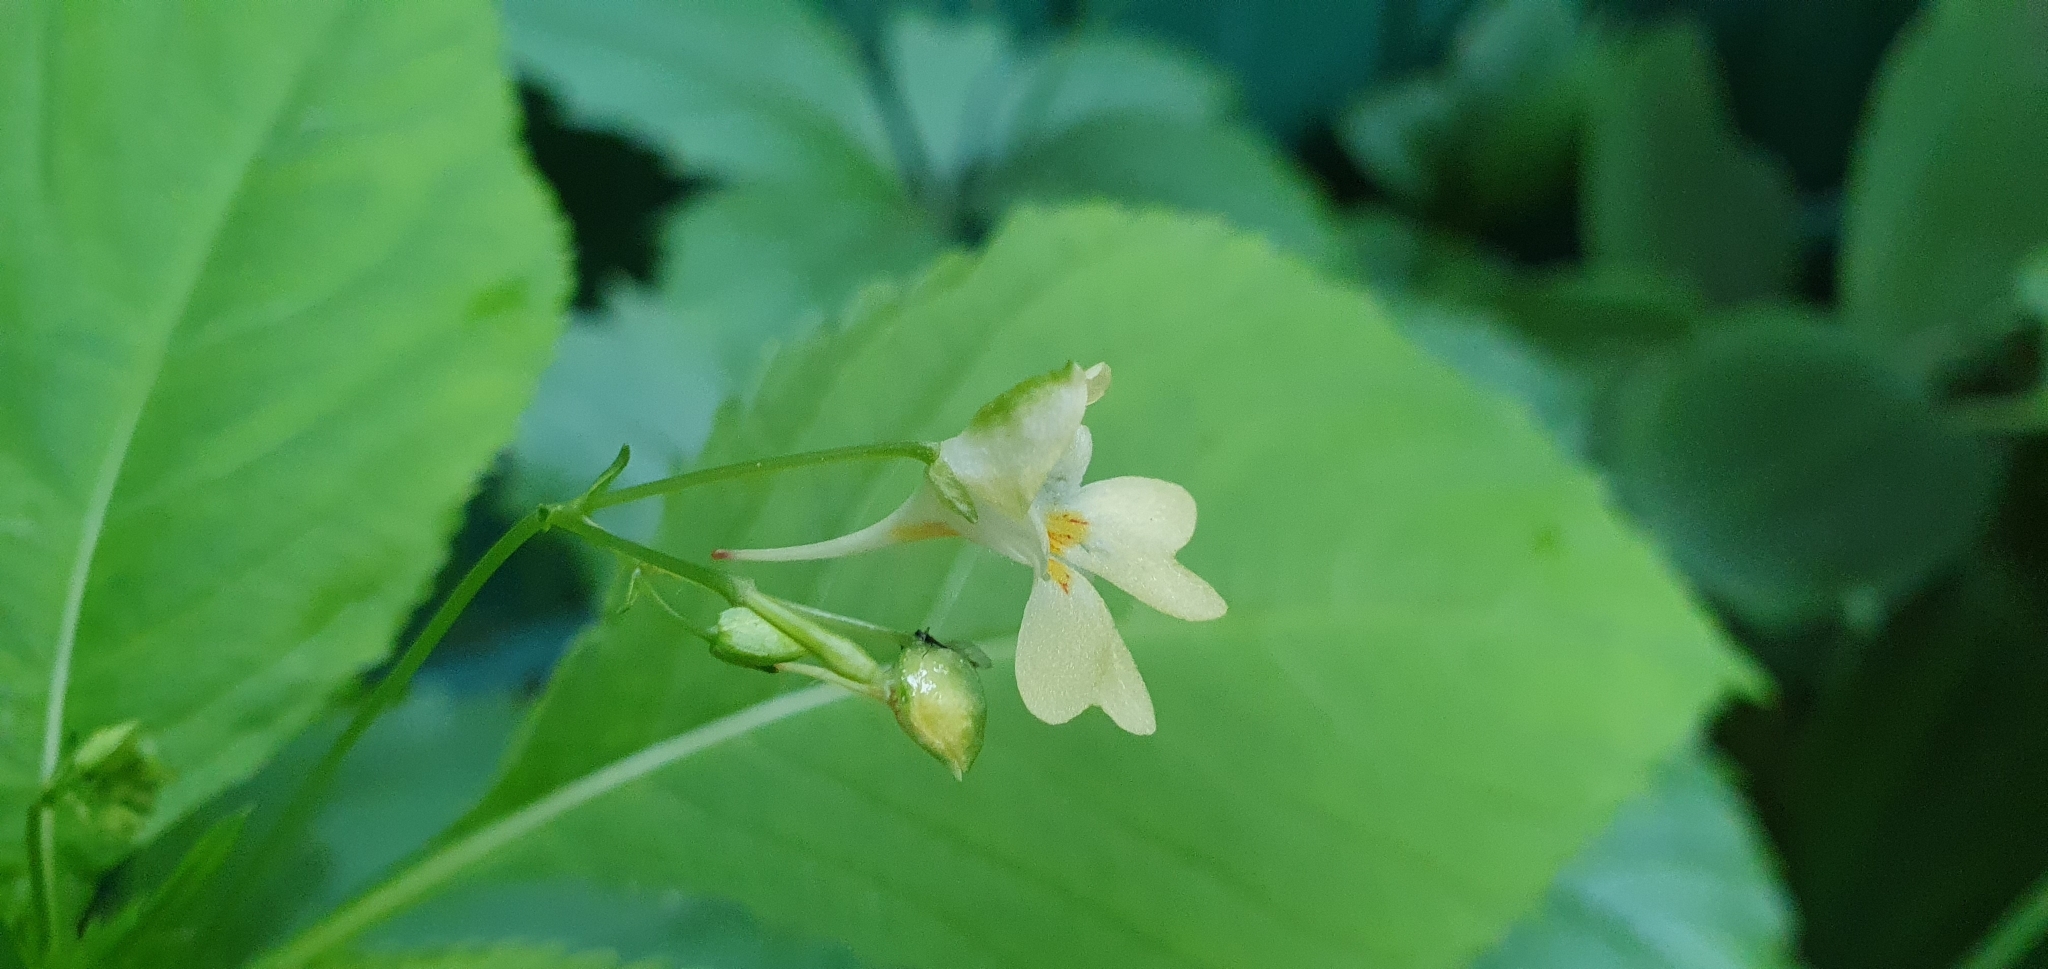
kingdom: Plantae
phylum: Tracheophyta
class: Magnoliopsida
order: Ericales
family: Balsaminaceae
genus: Impatiens
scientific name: Impatiens parviflora
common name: Small balsam
